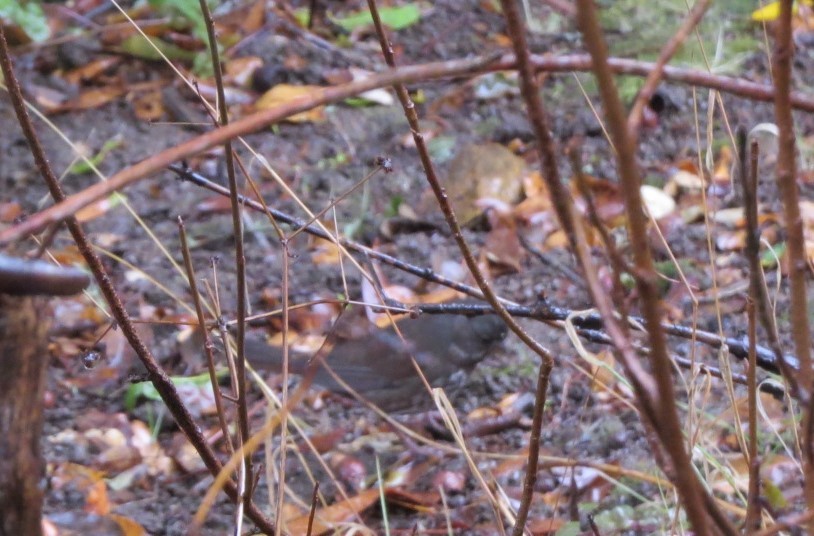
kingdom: Animalia
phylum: Chordata
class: Aves
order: Passeriformes
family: Passerellidae
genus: Passerella
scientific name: Passerella iliaca
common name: Fox sparrow
